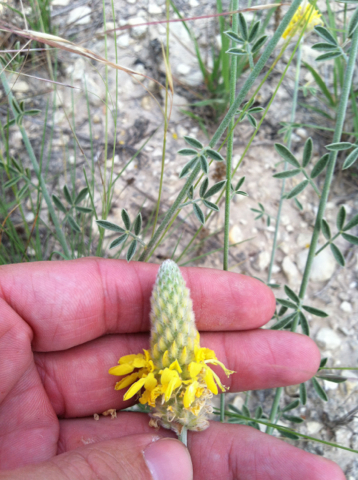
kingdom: Plantae
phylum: Tracheophyta
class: Magnoliopsida
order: Fabales
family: Fabaceae
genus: Dalea
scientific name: Dalea aurea
